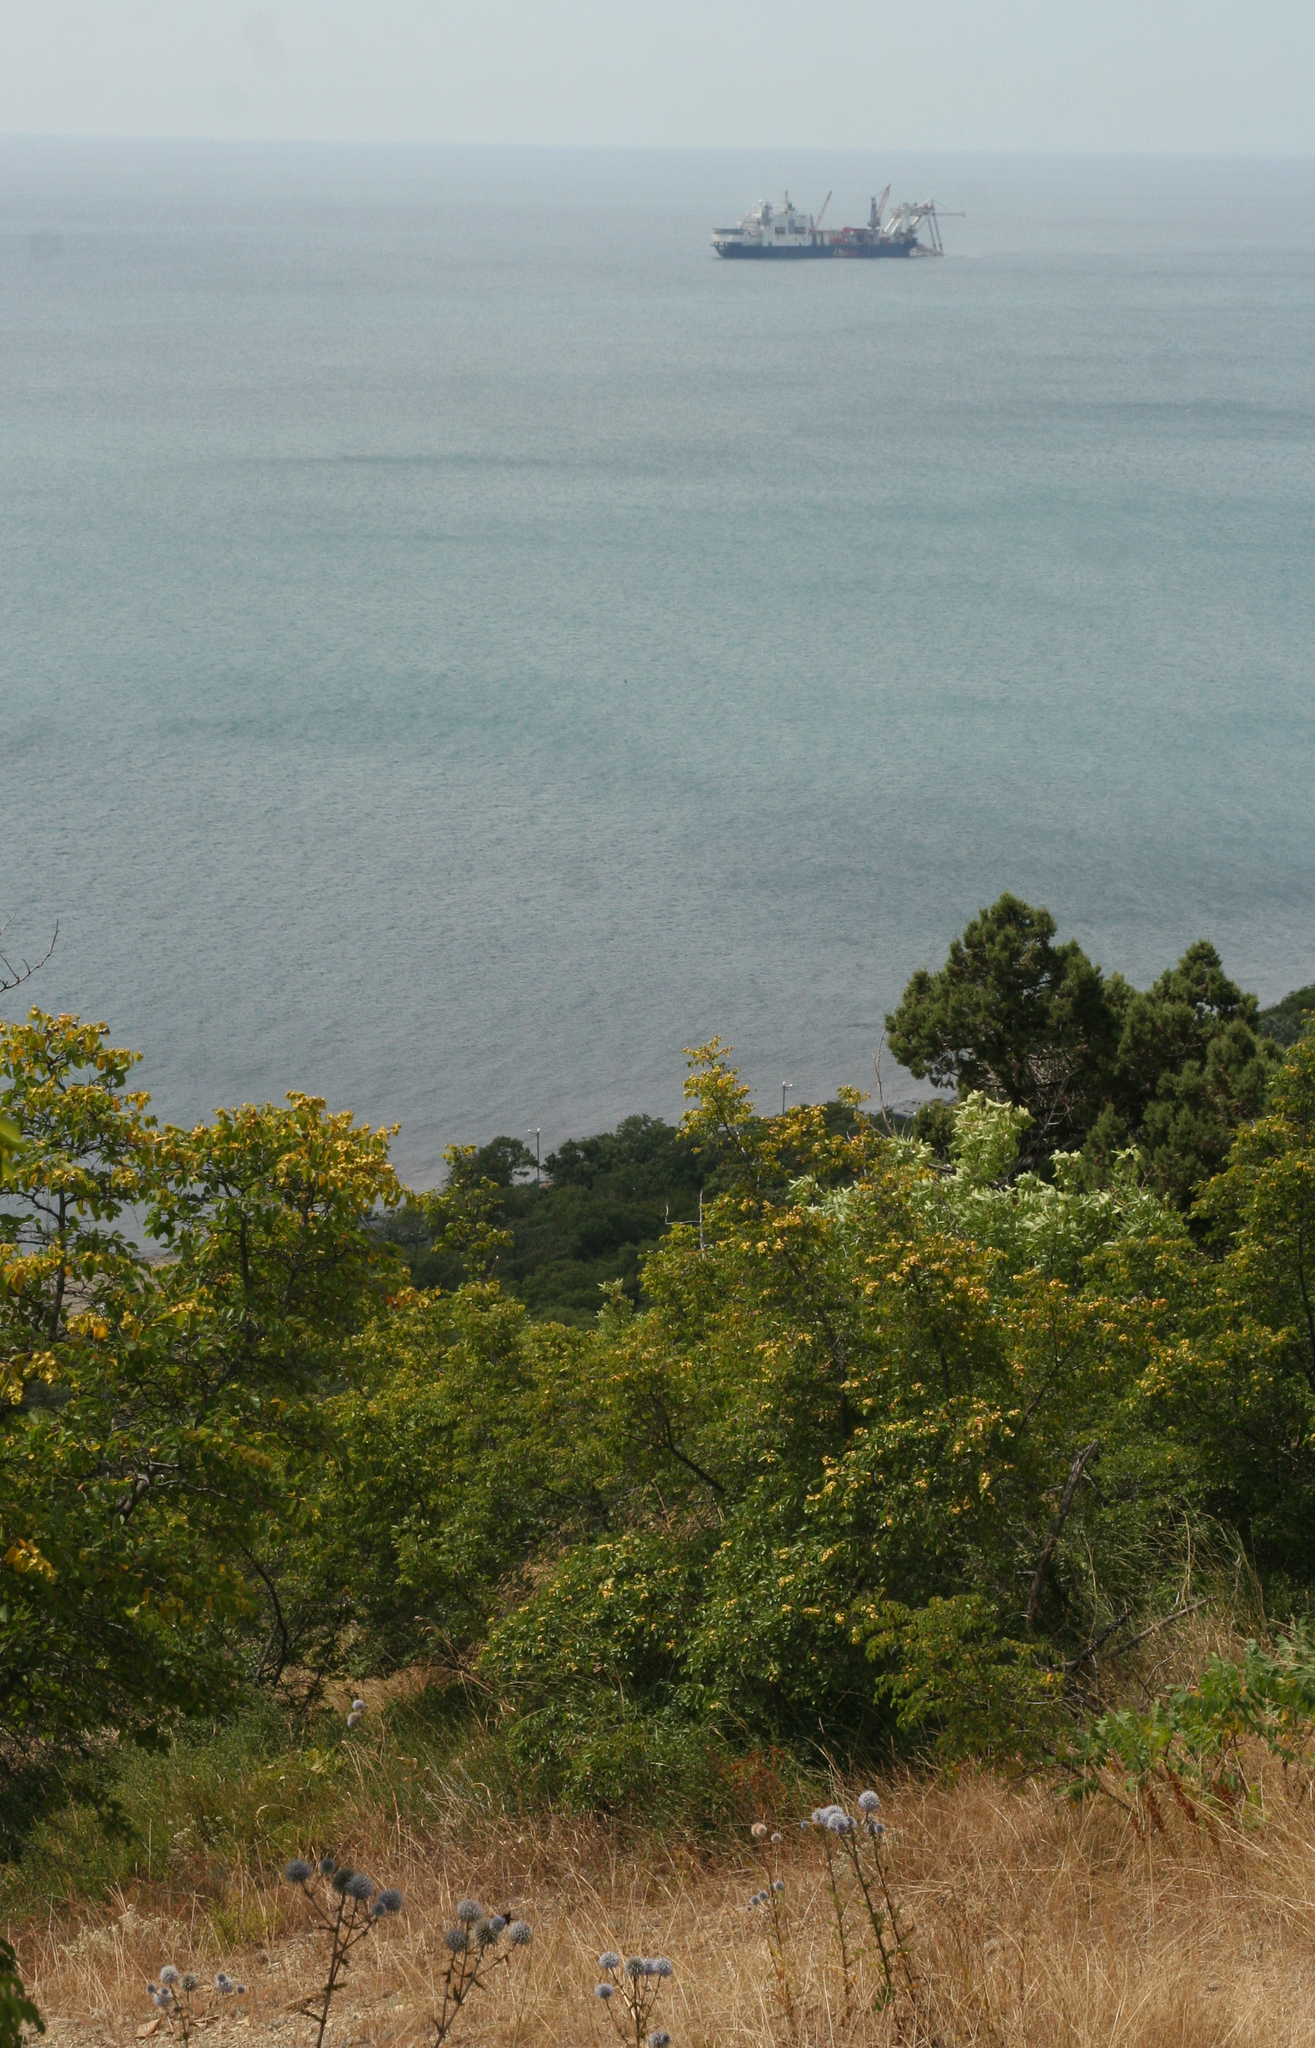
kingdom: Plantae
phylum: Tracheophyta
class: Magnoliopsida
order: Rosales
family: Rhamnaceae
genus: Paliurus
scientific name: Paliurus spina-christi
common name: Jeruselem thorn
